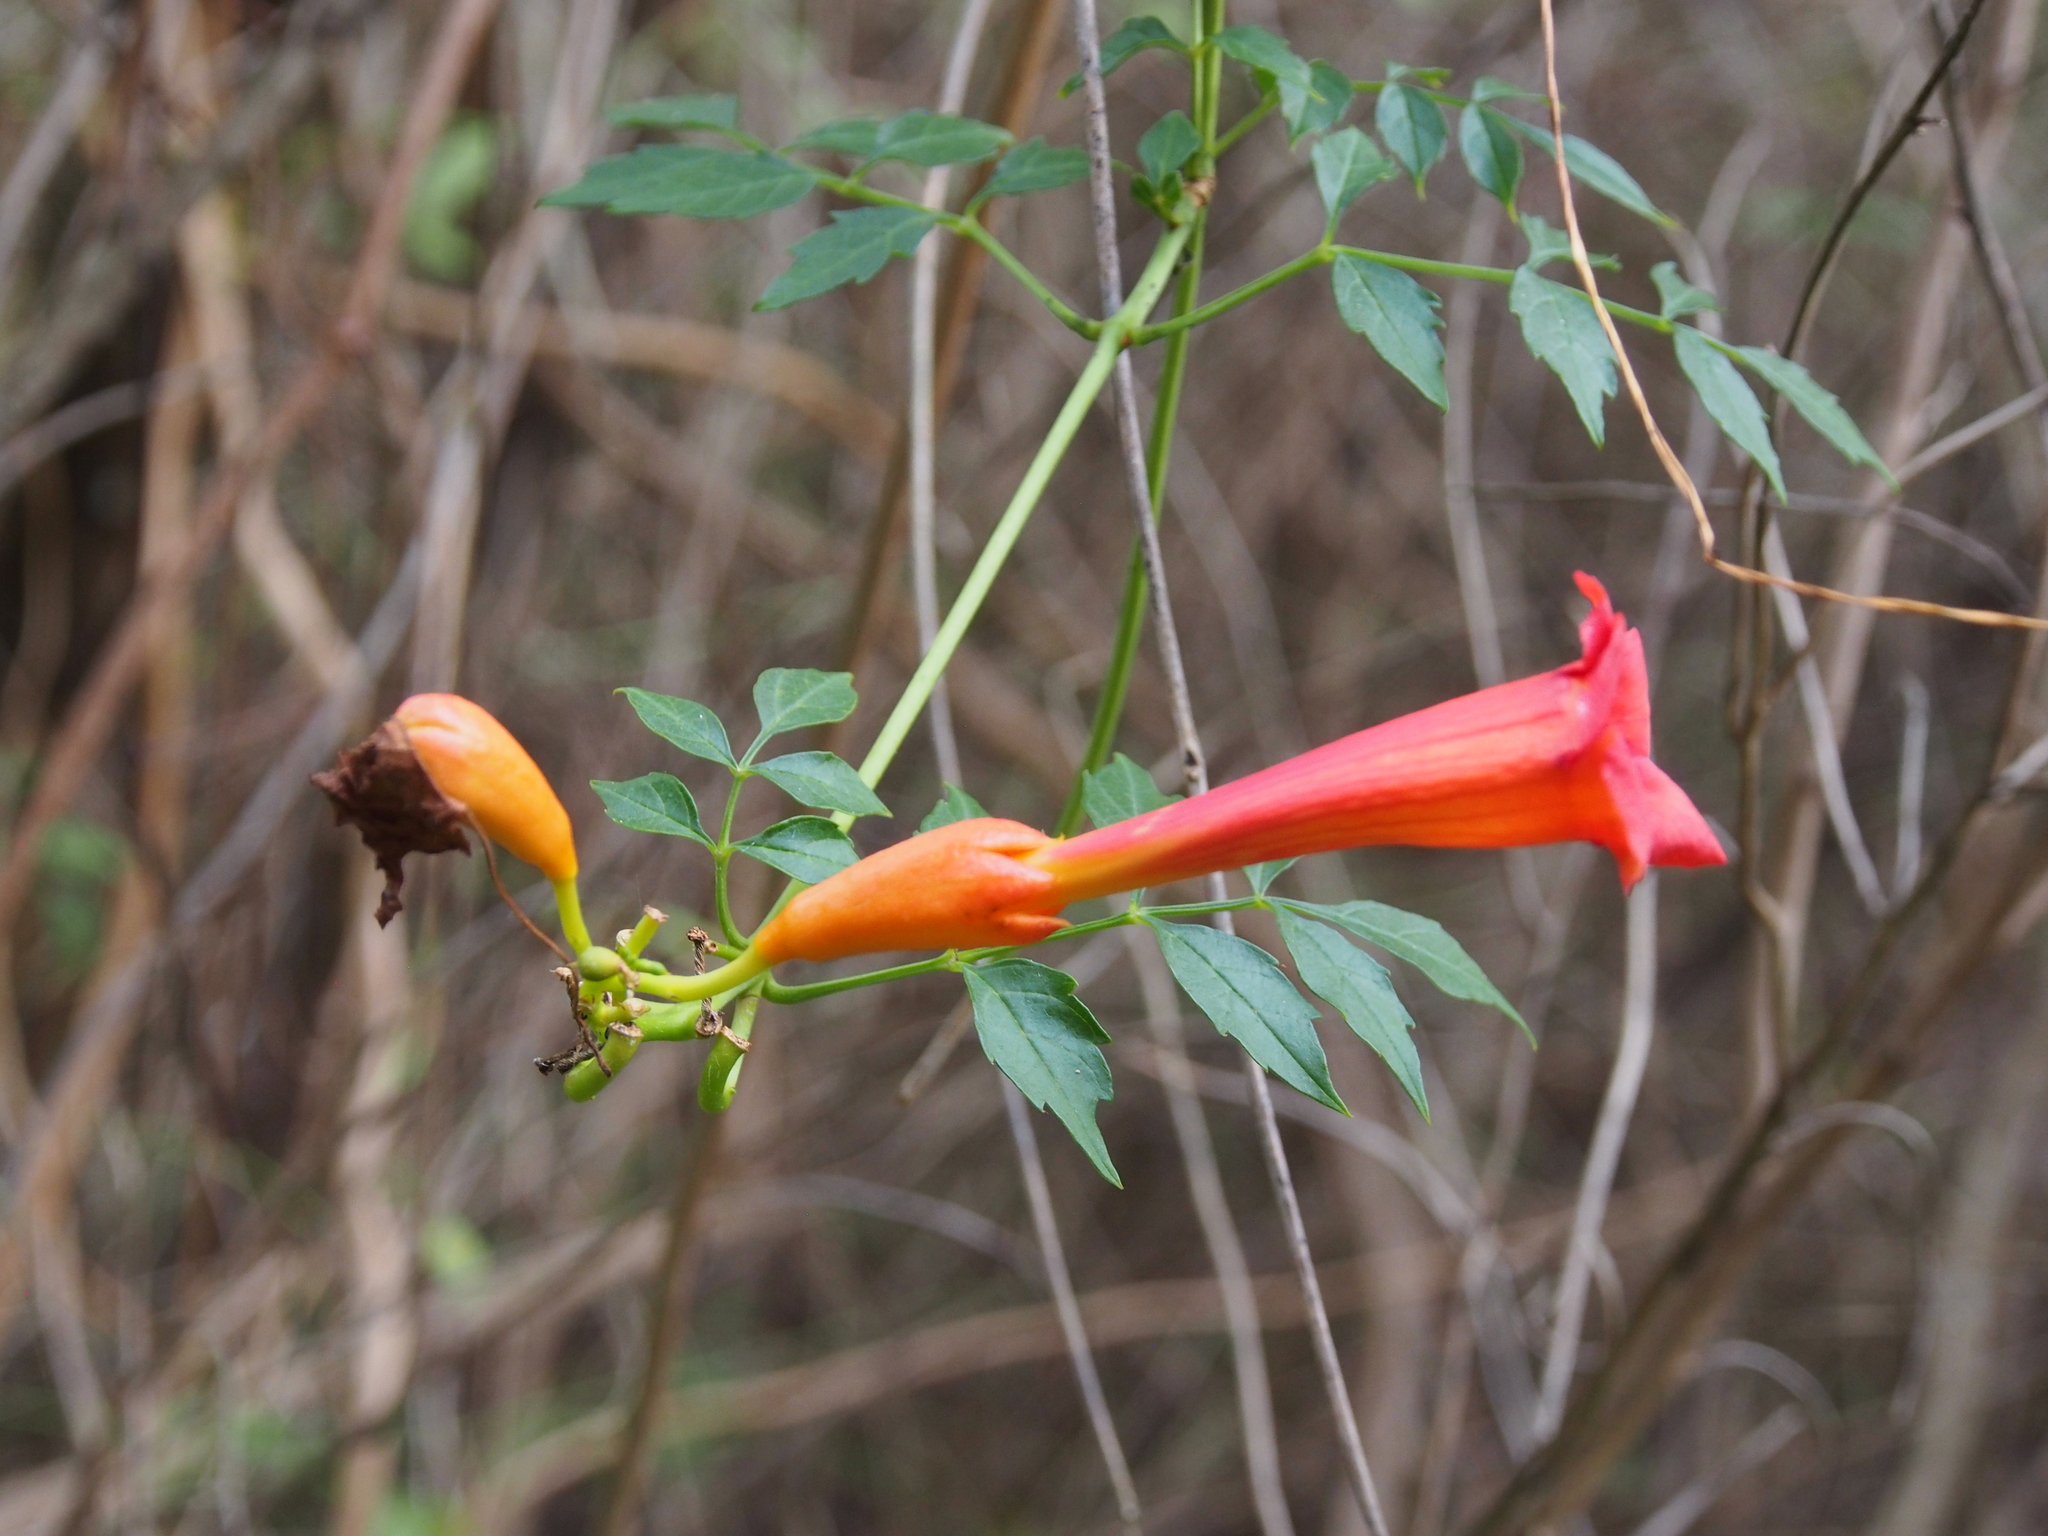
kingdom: Plantae
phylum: Tracheophyta
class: Magnoliopsida
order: Lamiales
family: Bignoniaceae
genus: Campsis
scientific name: Campsis radicans
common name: Trumpet-creeper
